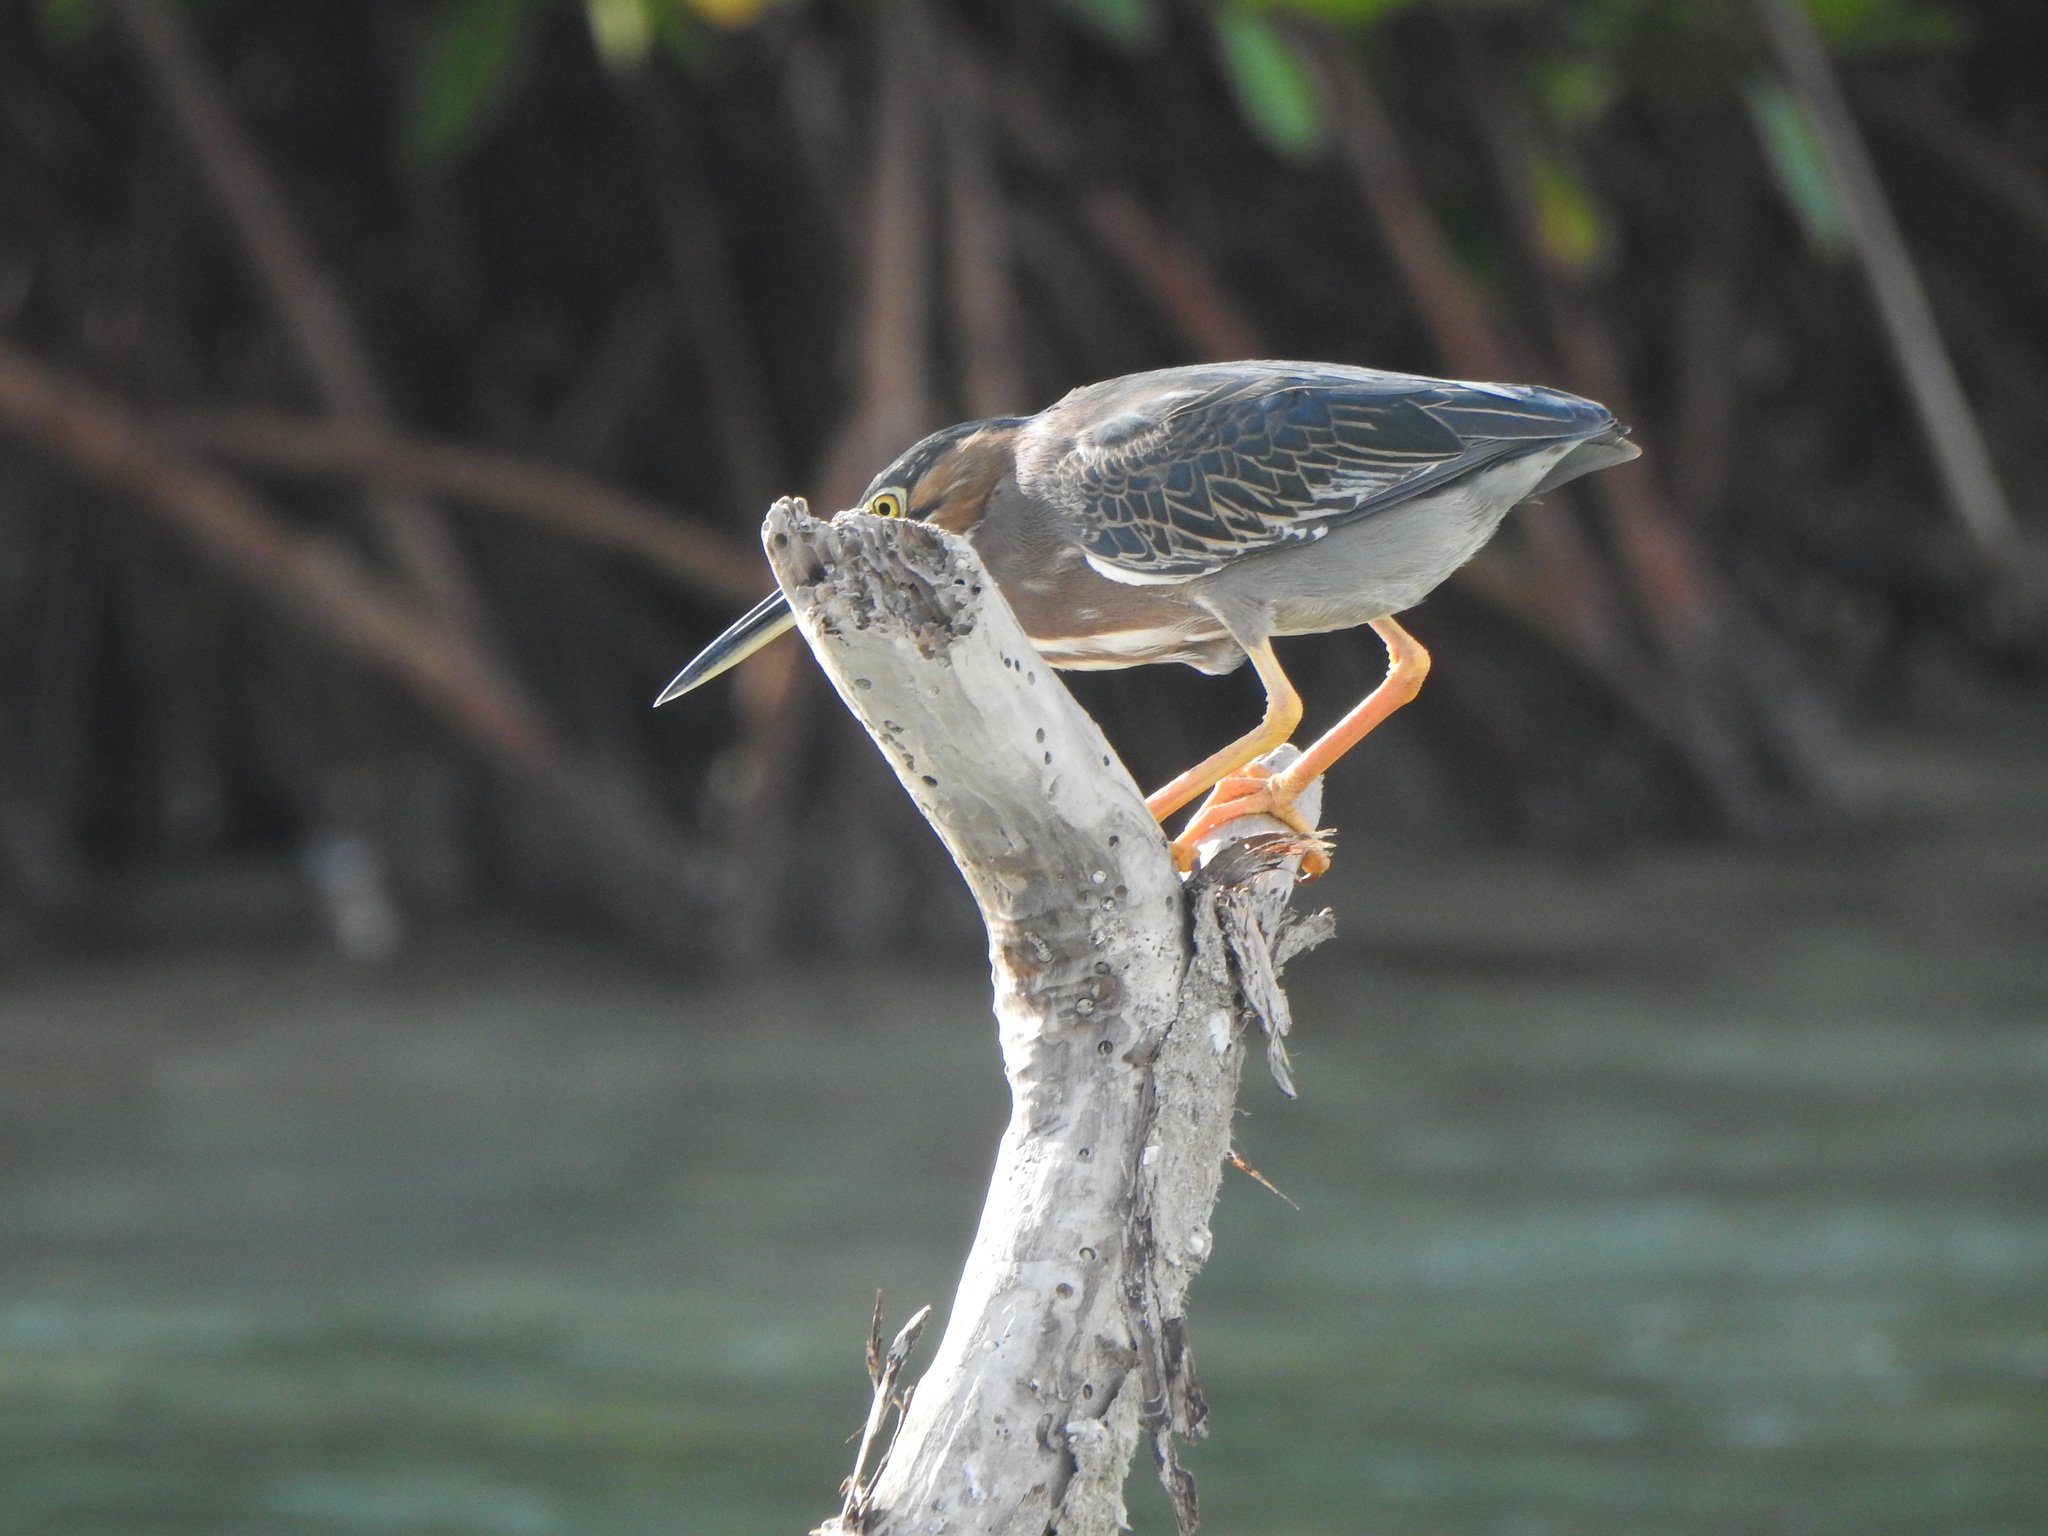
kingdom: Animalia
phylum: Chordata
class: Aves
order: Pelecaniformes
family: Ardeidae
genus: Butorides
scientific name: Butorides virescens
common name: Green heron
